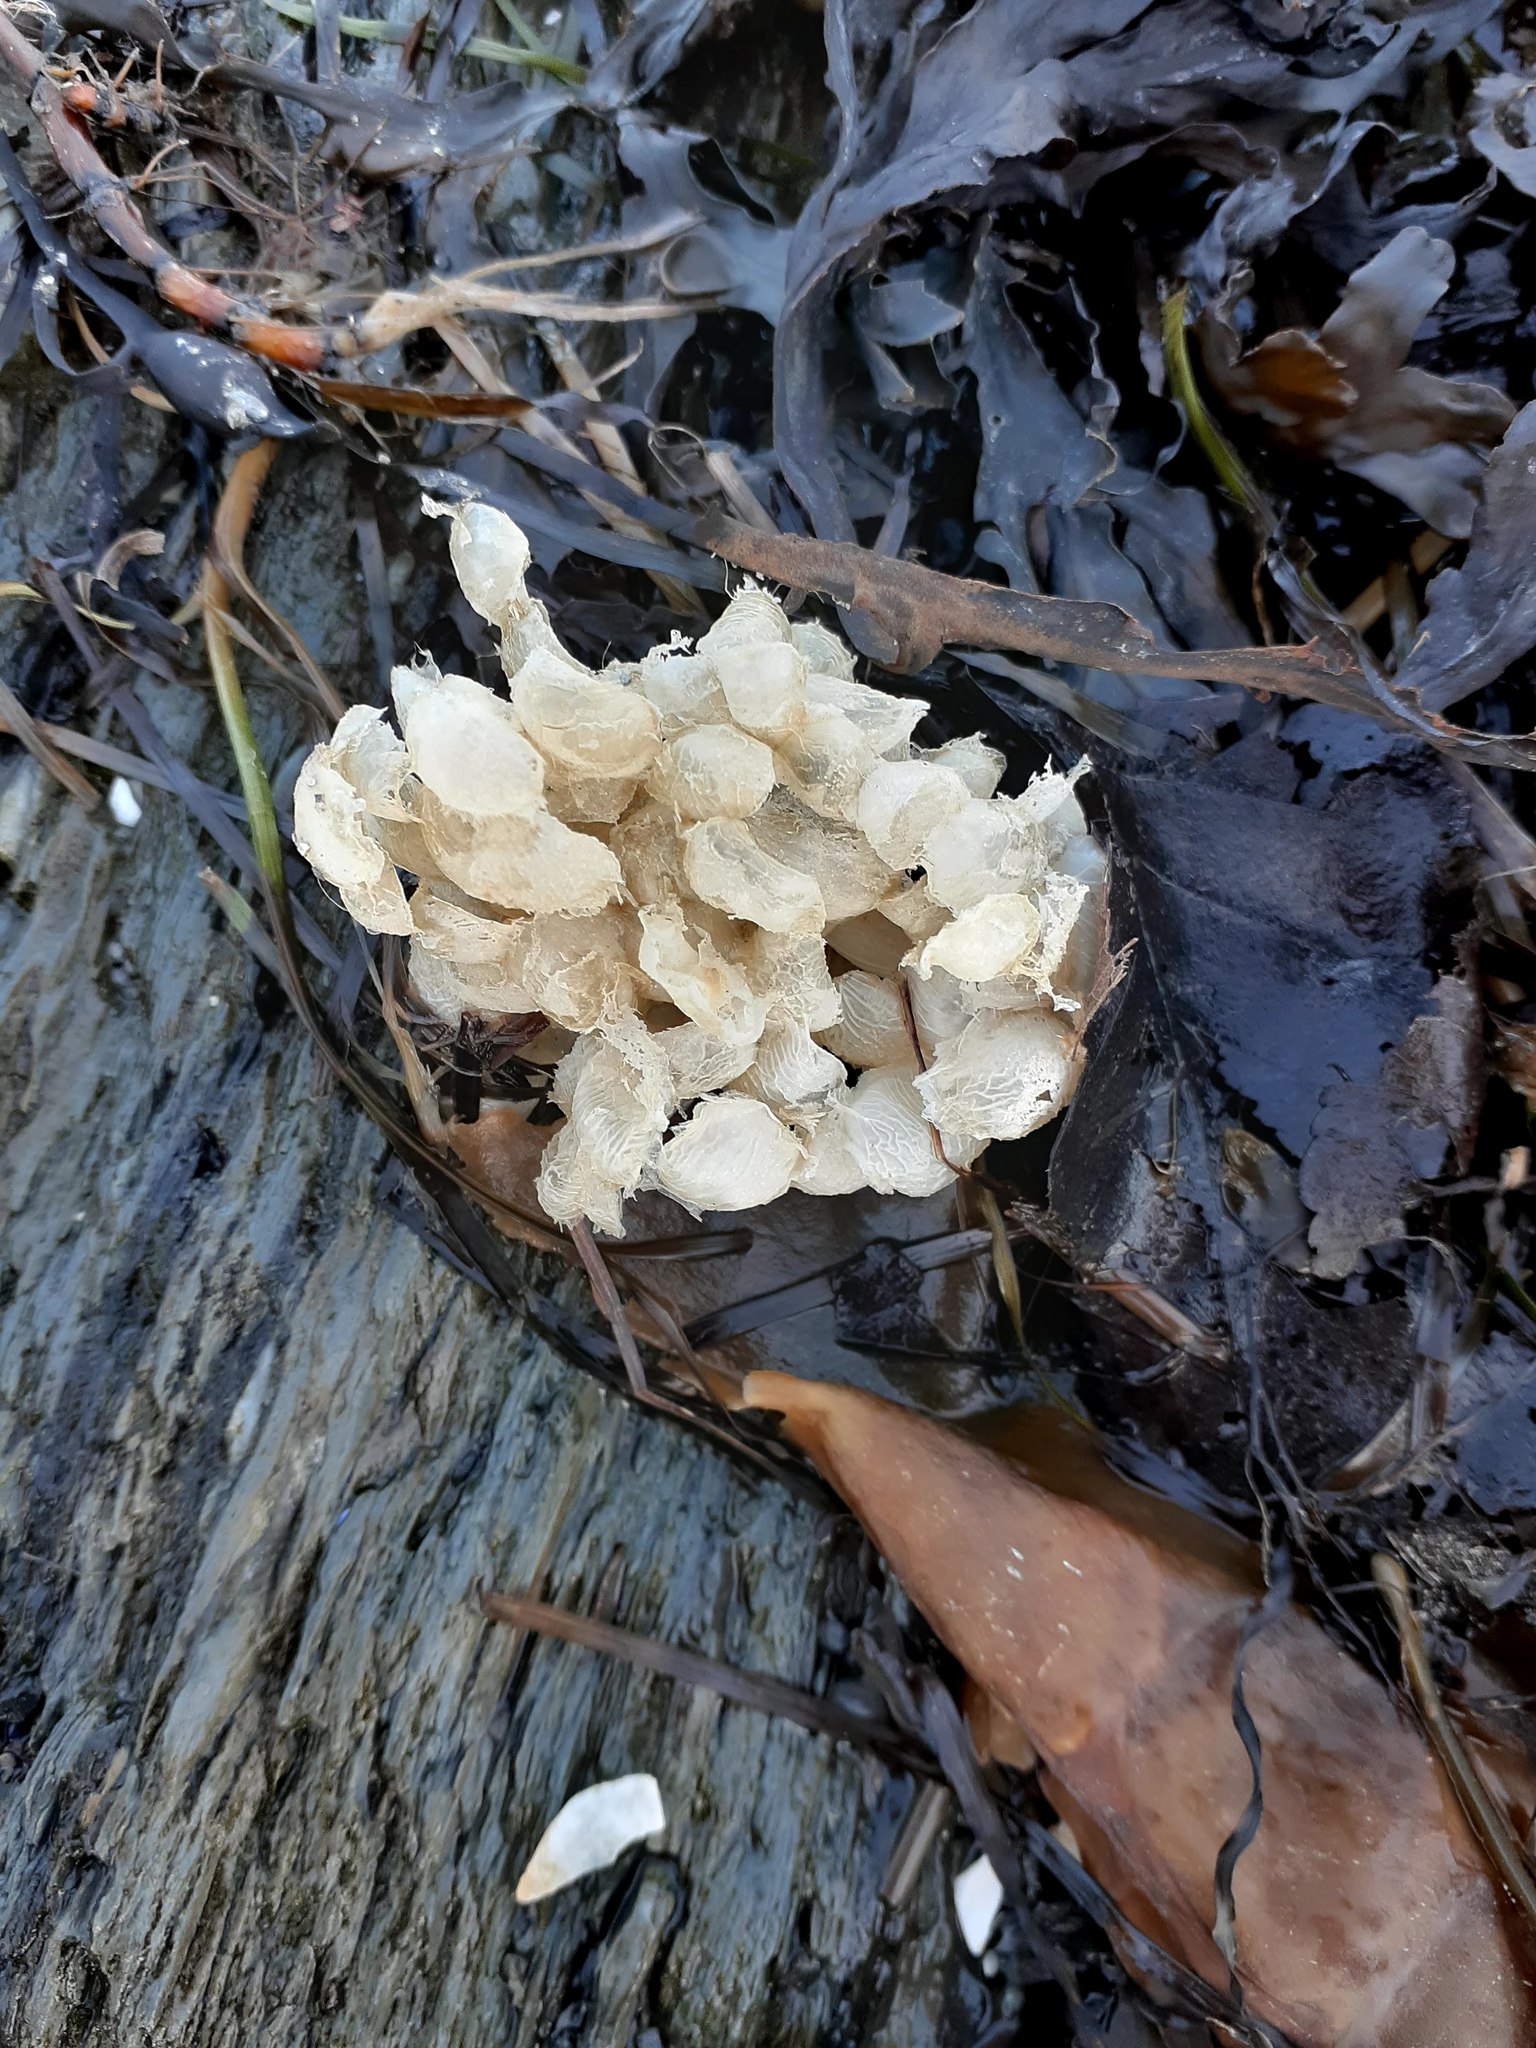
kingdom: Animalia
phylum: Mollusca
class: Gastropoda
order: Neogastropoda
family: Buccinidae
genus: Buccinum
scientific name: Buccinum undatum
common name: Common whelk
